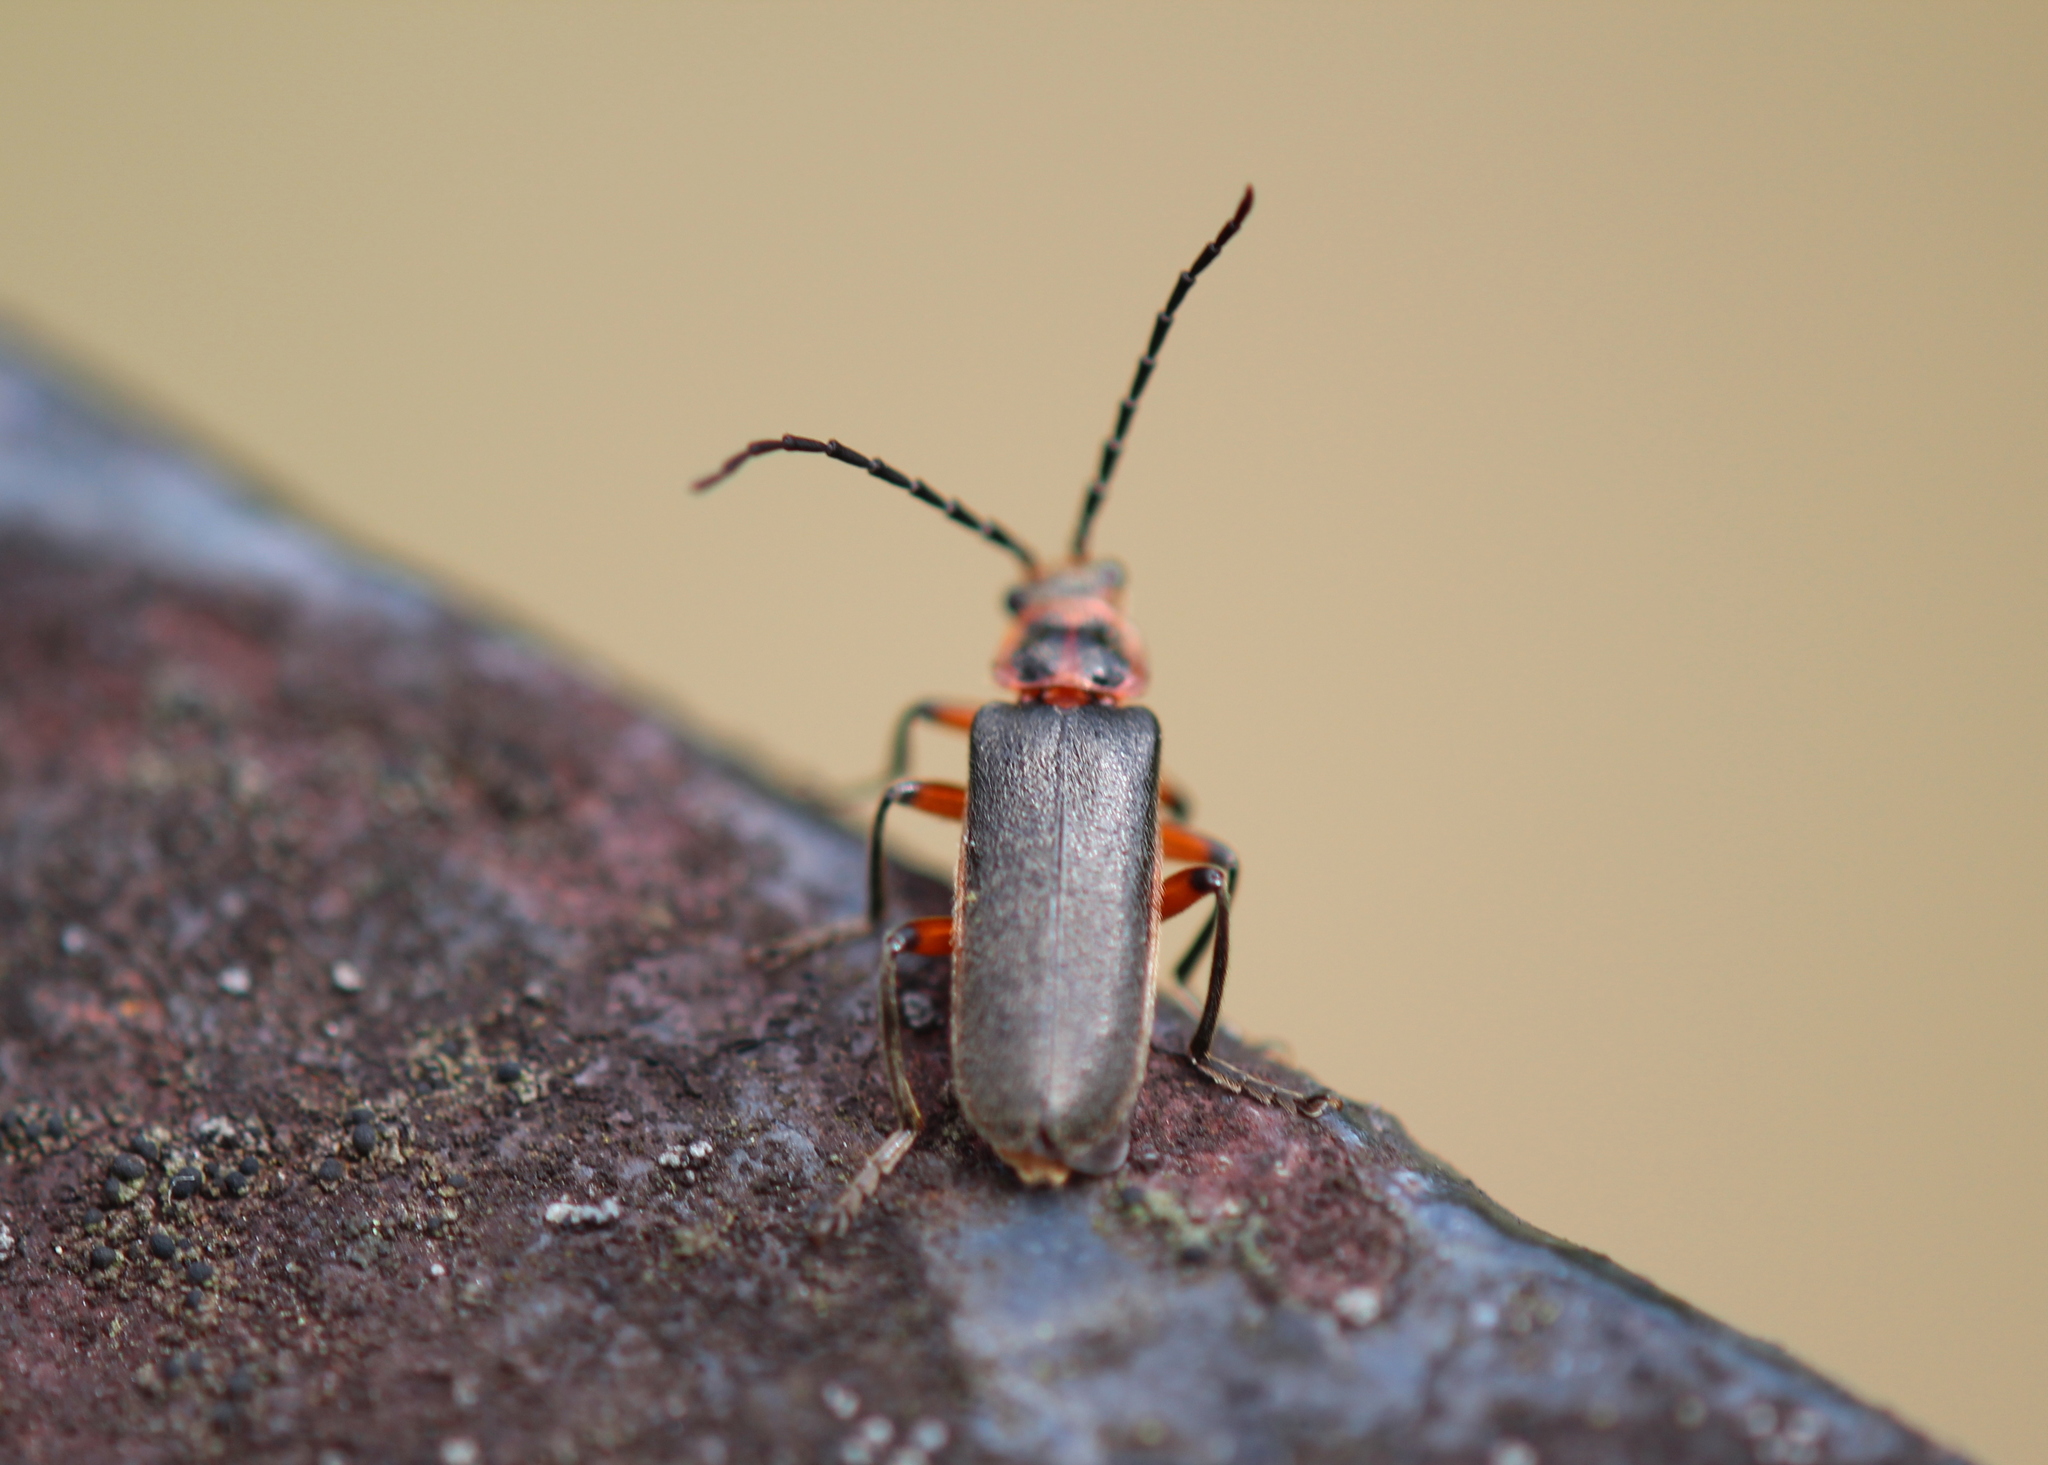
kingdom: Animalia
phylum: Arthropoda
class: Insecta
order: Coleoptera
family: Cantharidae
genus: Atalantycha
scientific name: Atalantycha bilineata
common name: Two-lined leatherwing
